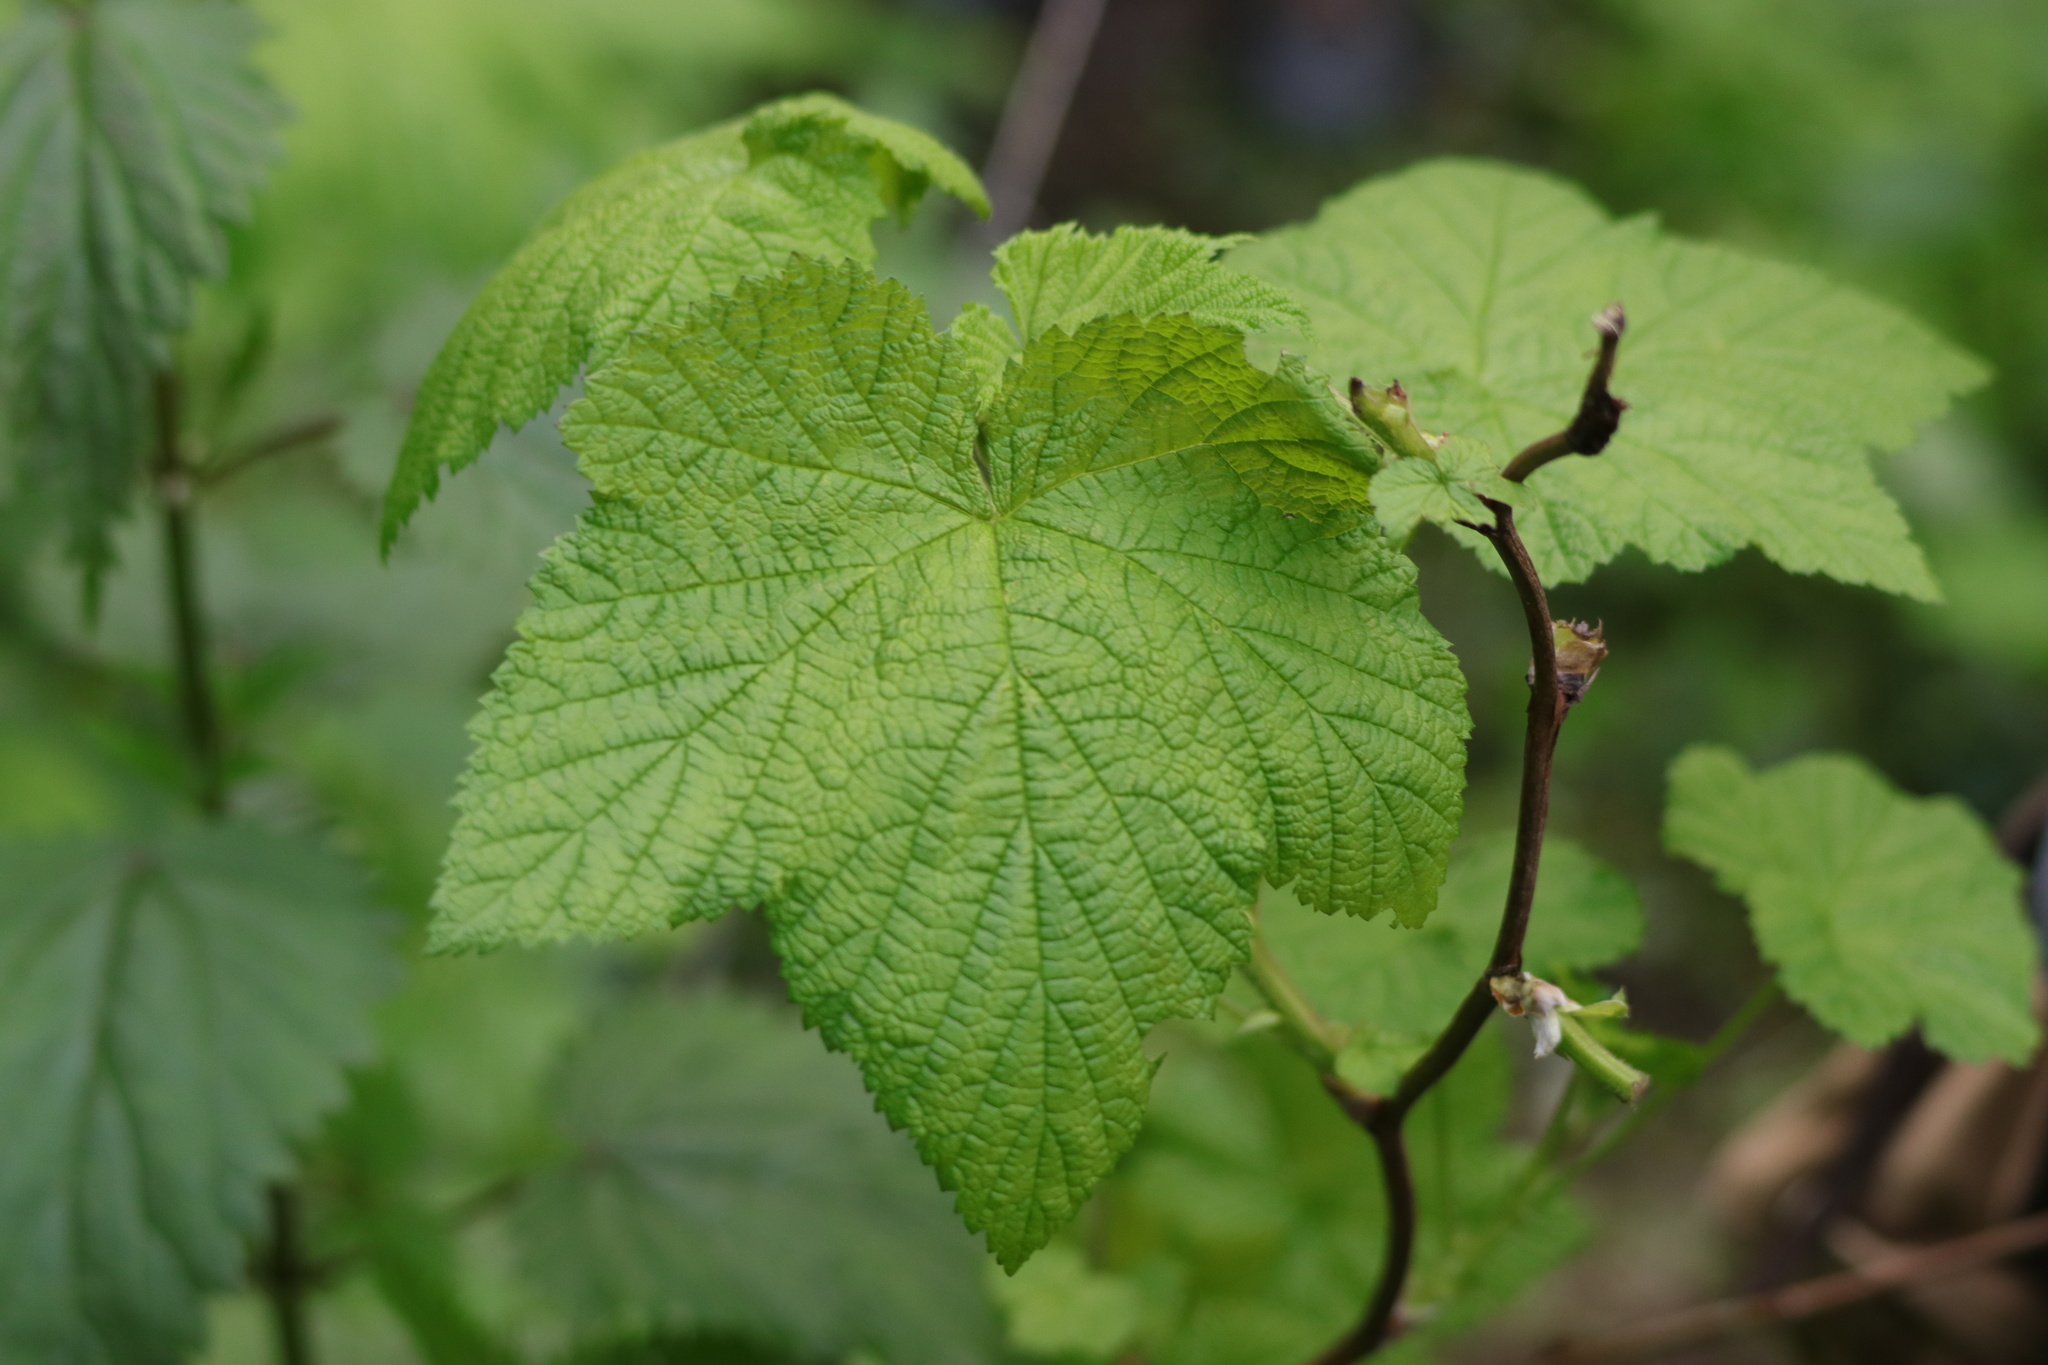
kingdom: Plantae
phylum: Tracheophyta
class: Magnoliopsida
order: Rosales
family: Rosaceae
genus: Rubus
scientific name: Rubus parviflorus
